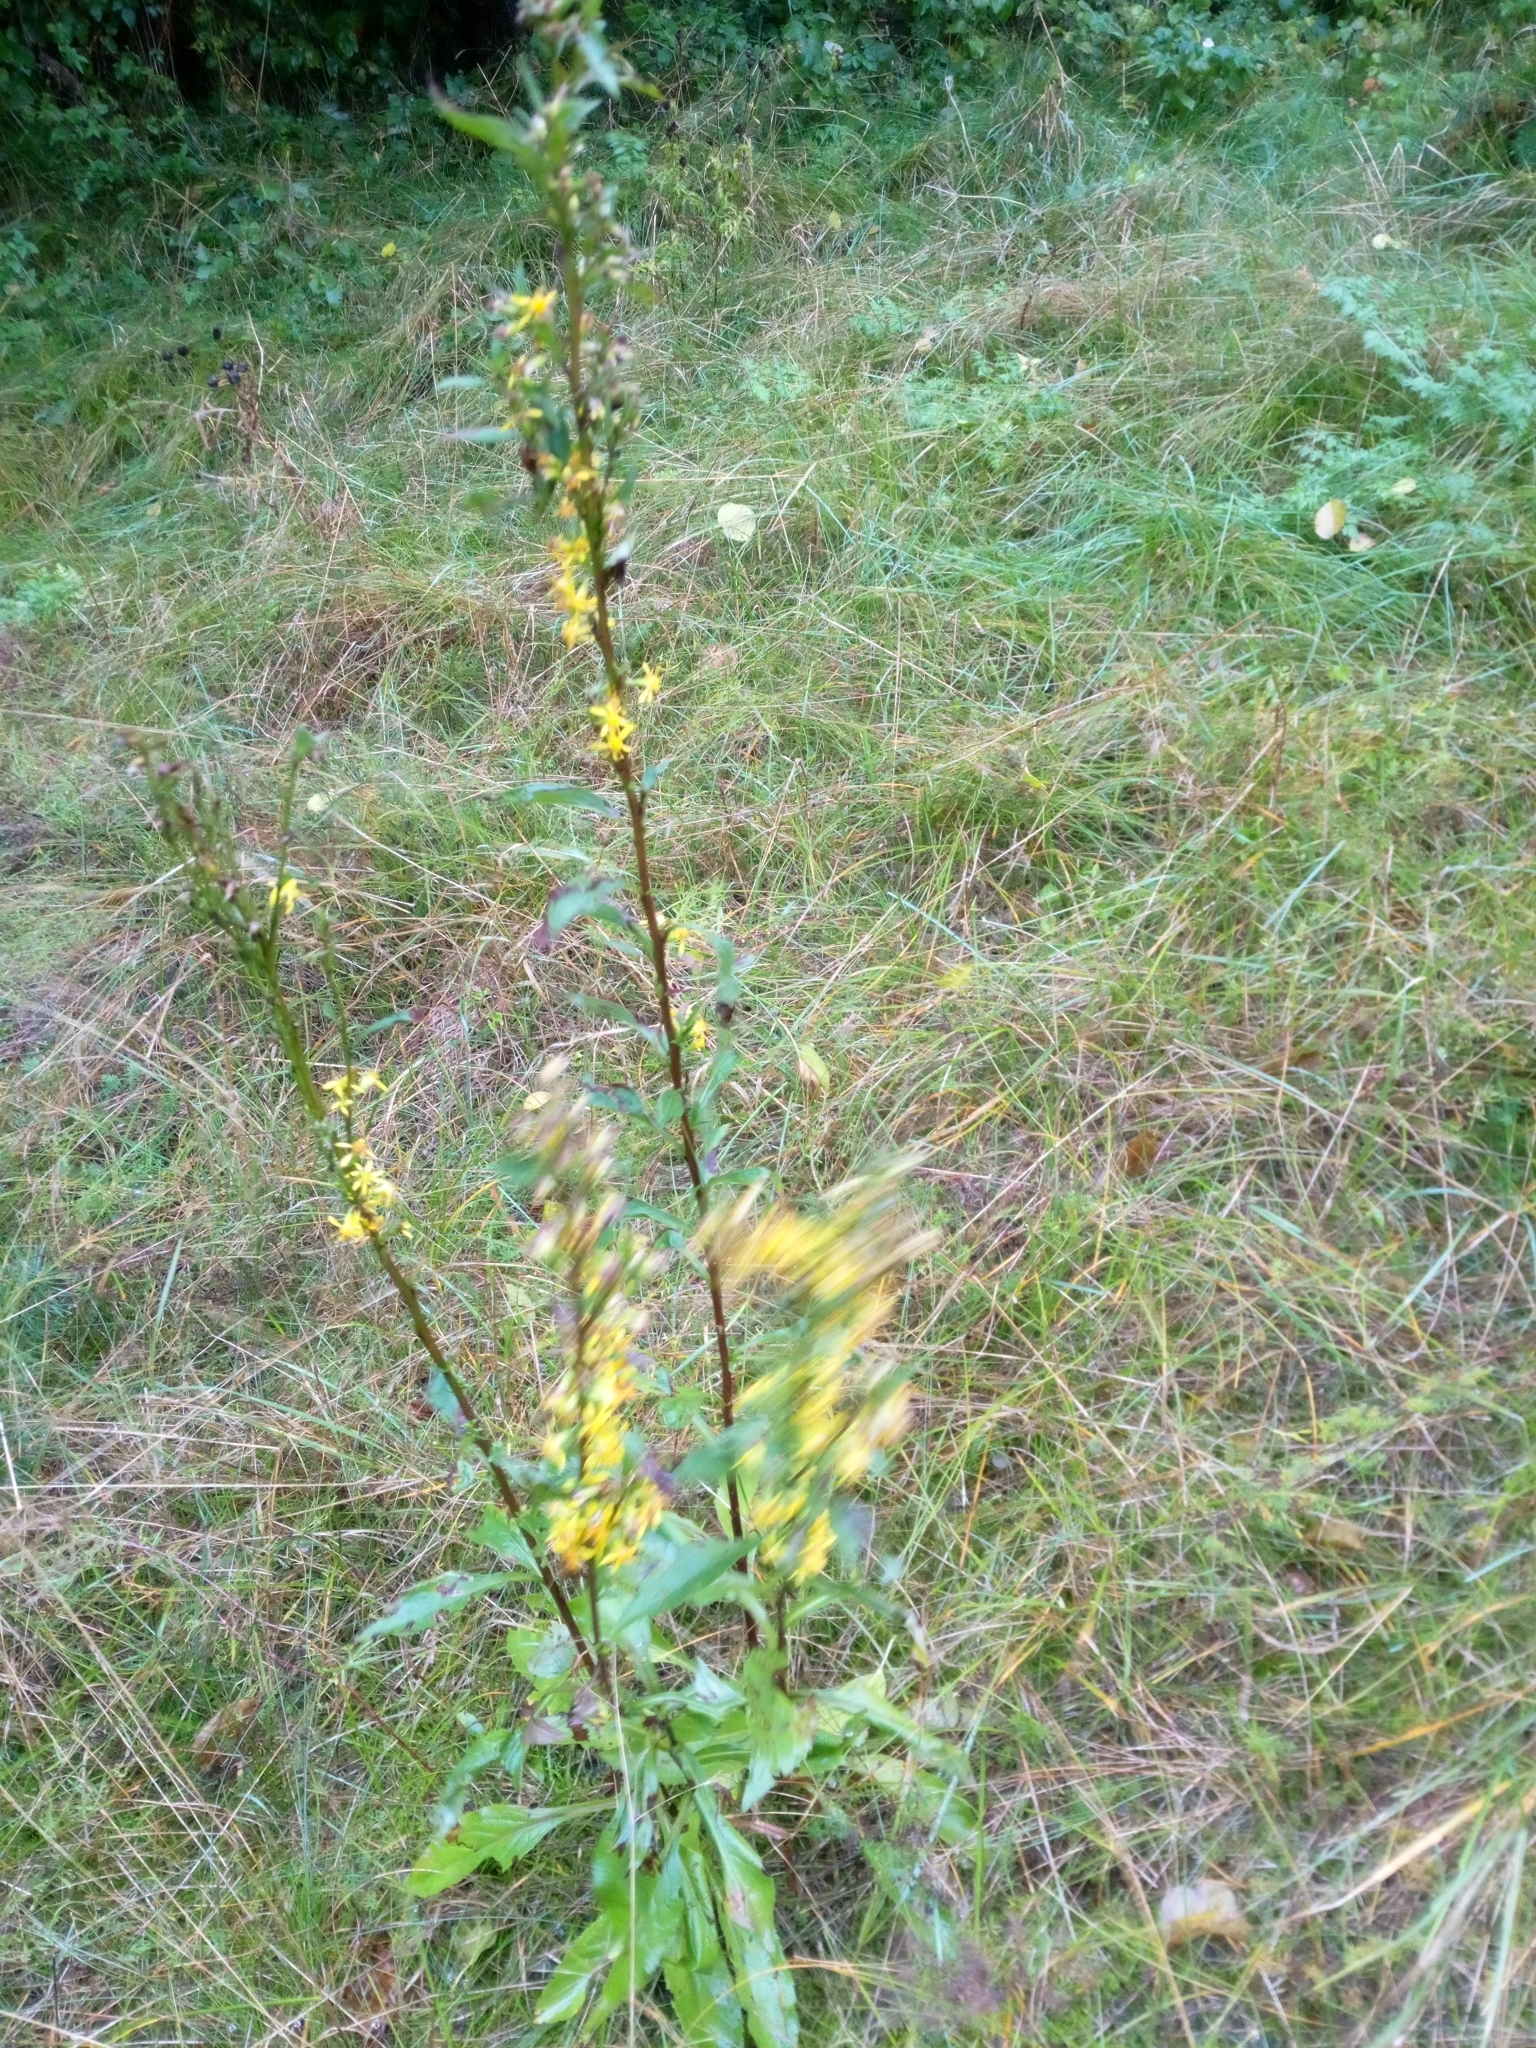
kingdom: Plantae
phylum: Tracheophyta
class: Magnoliopsida
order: Asterales
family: Asteraceae
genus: Solidago
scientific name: Solidago virgaurea
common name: Goldenrod
